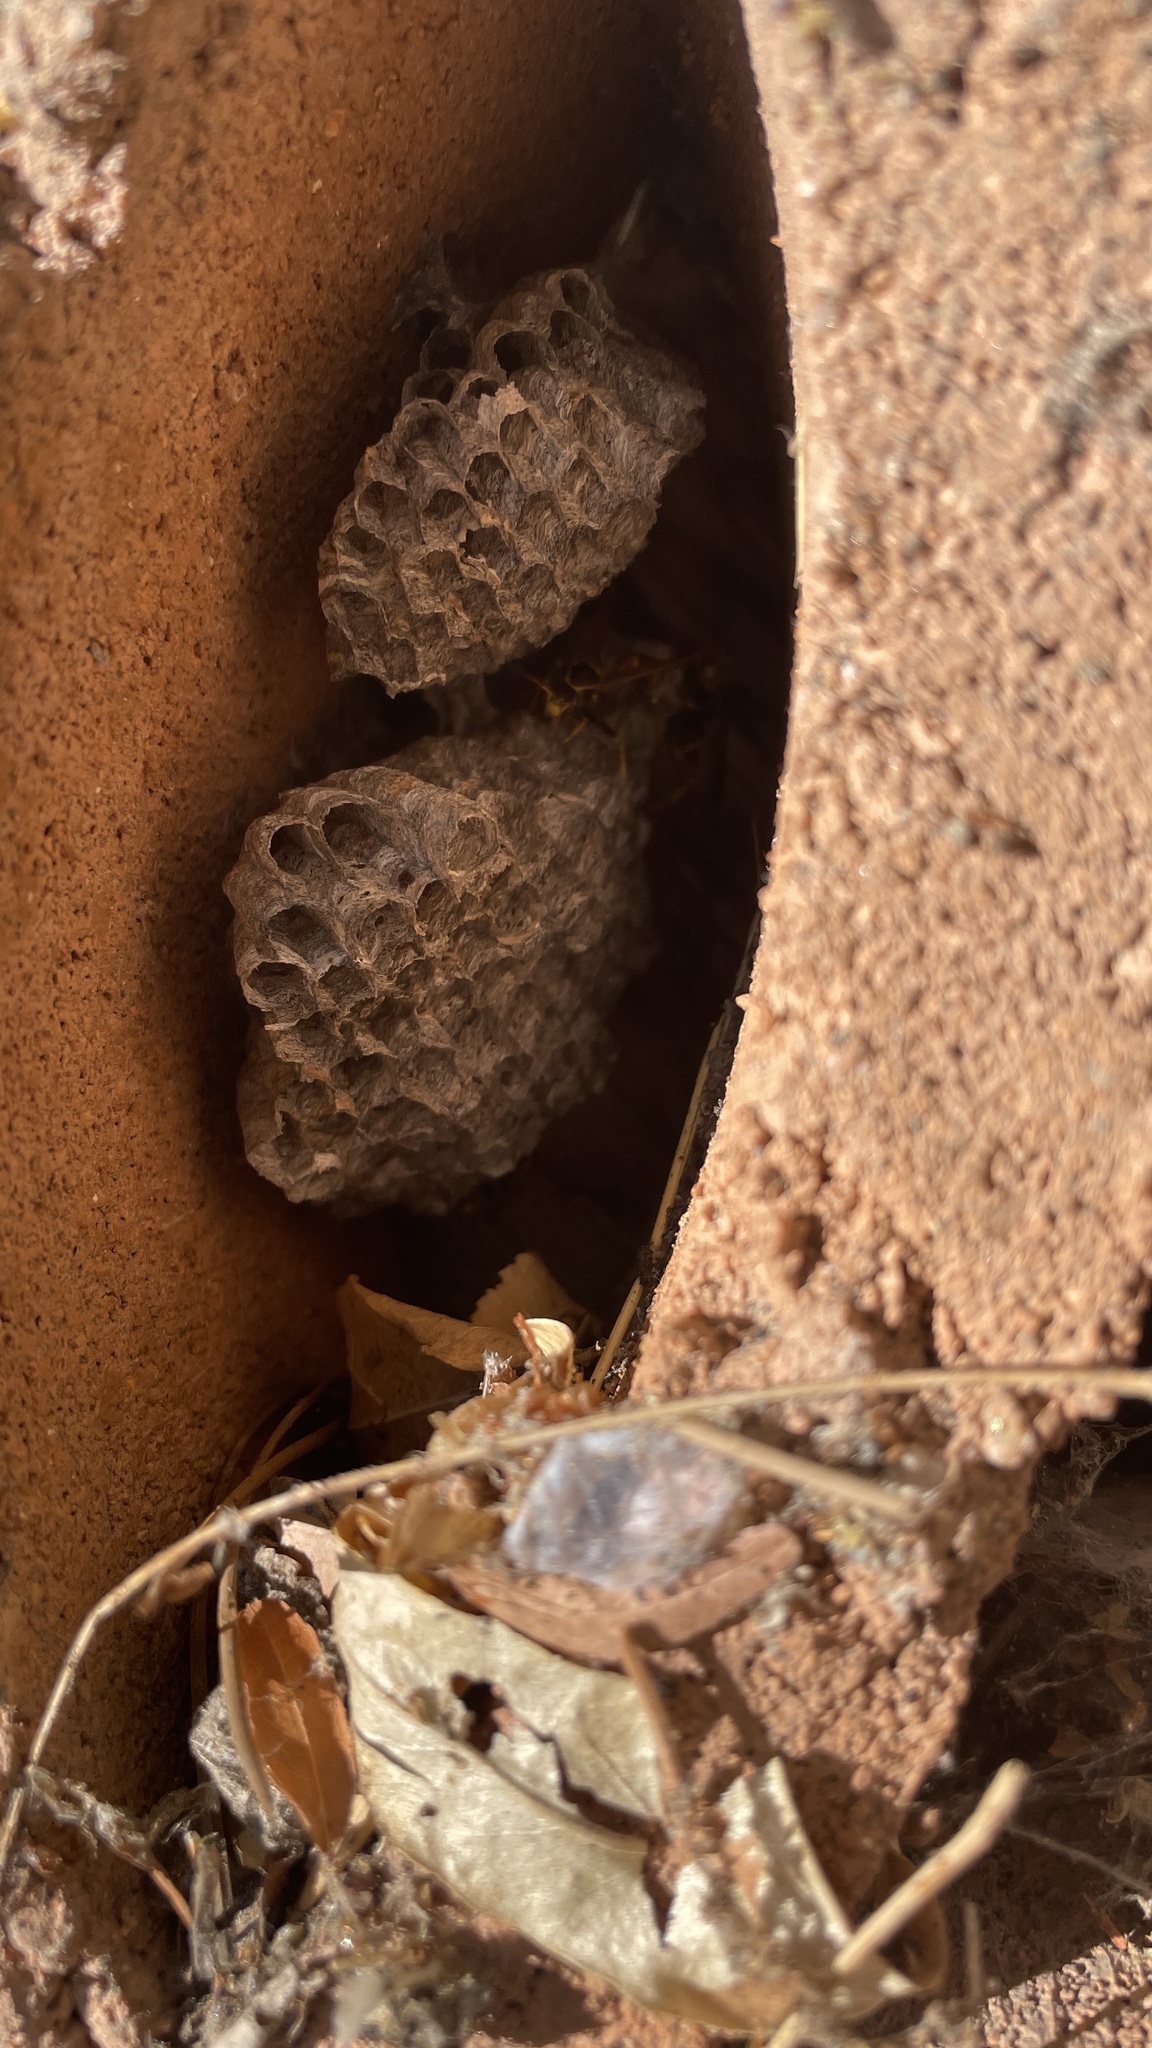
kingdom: Animalia
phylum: Arthropoda
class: Insecta
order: Hymenoptera
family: Vespidae
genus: Mischocyttarus
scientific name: Mischocyttarus flavitarsis
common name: Wasp
